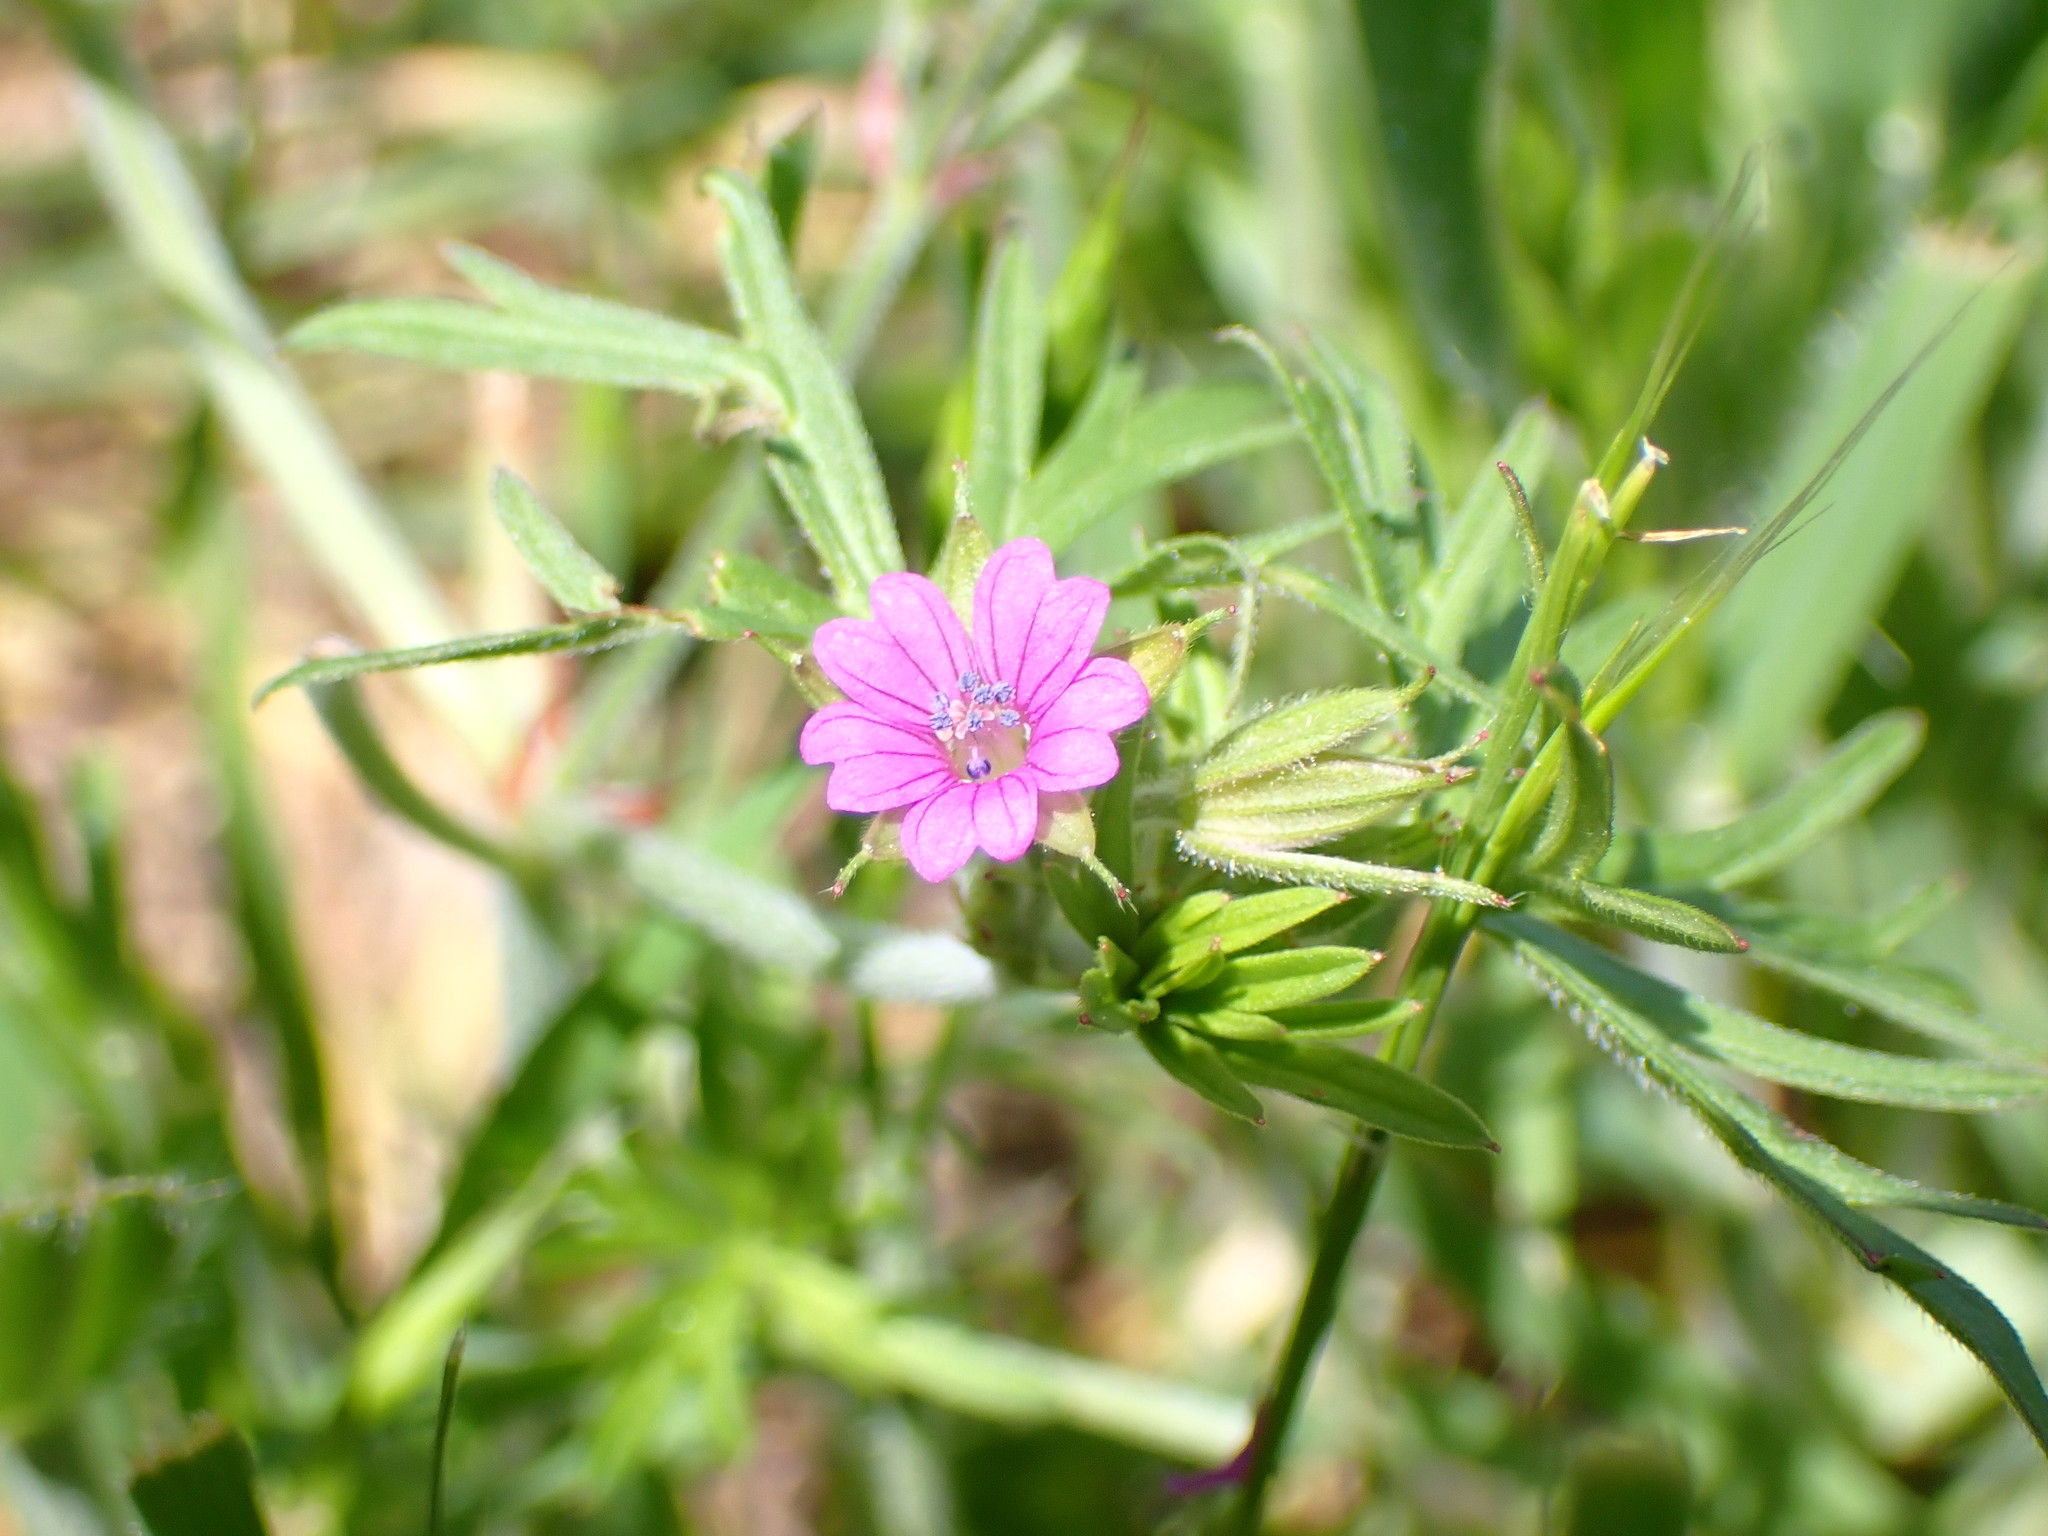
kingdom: Plantae
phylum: Tracheophyta
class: Magnoliopsida
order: Geraniales
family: Geraniaceae
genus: Geranium
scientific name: Geranium dissectum
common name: Cut-leaved crane's-bill
